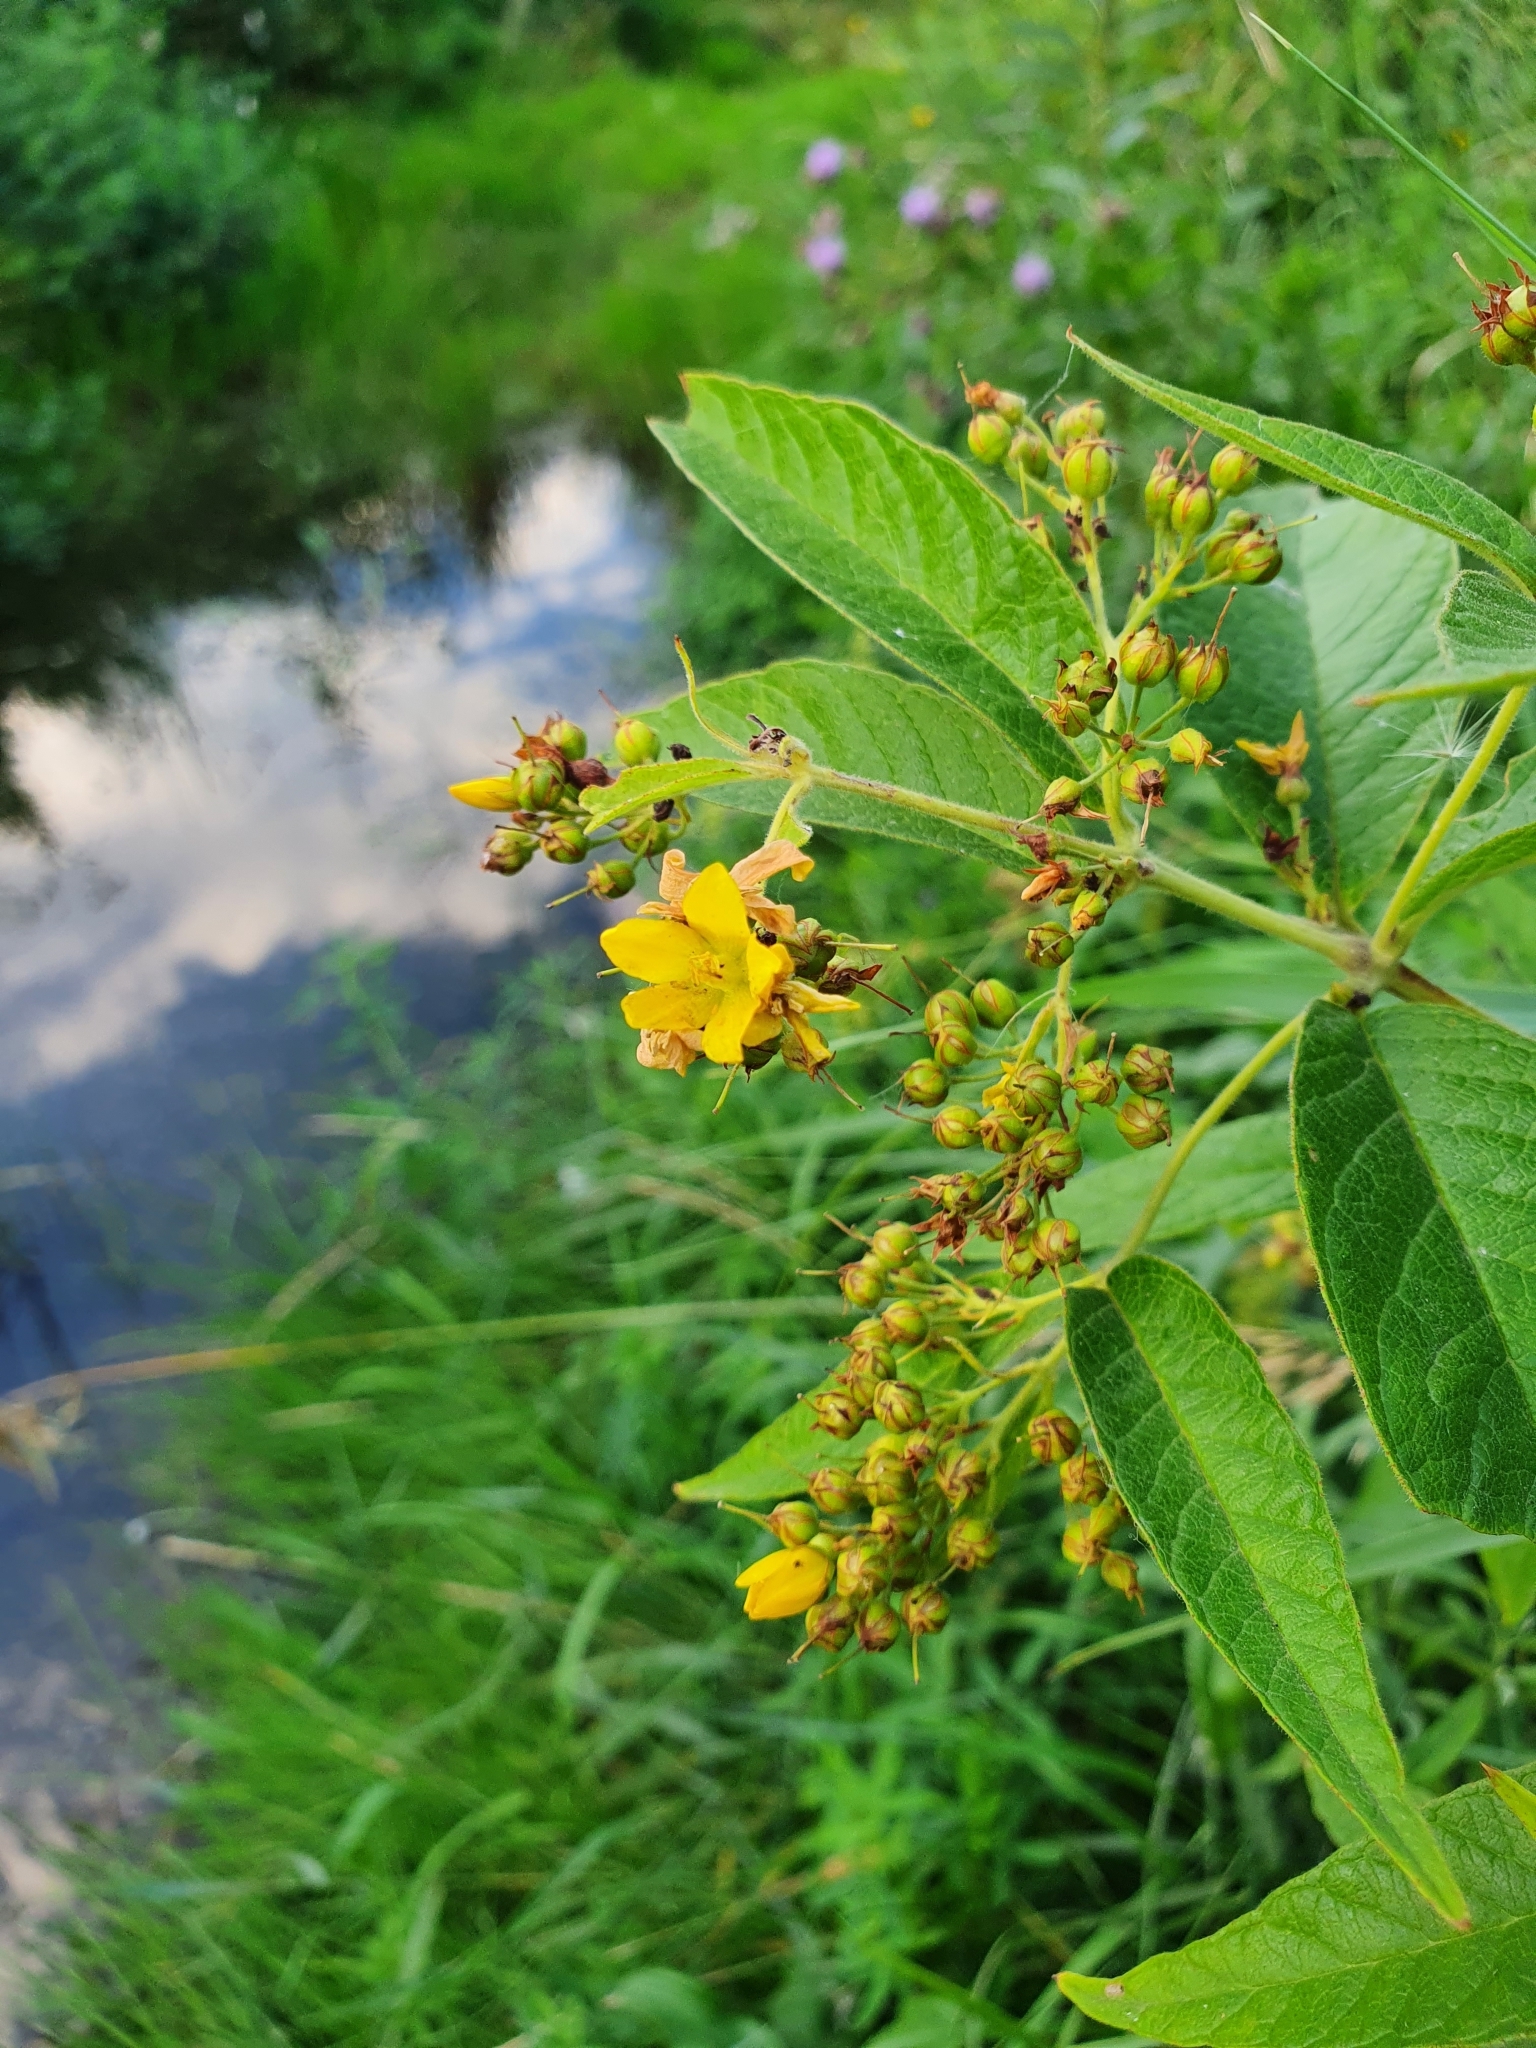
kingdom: Plantae
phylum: Tracheophyta
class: Magnoliopsida
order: Ericales
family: Primulaceae
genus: Lysimachia
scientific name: Lysimachia vulgaris
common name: Yellow loosestrife
